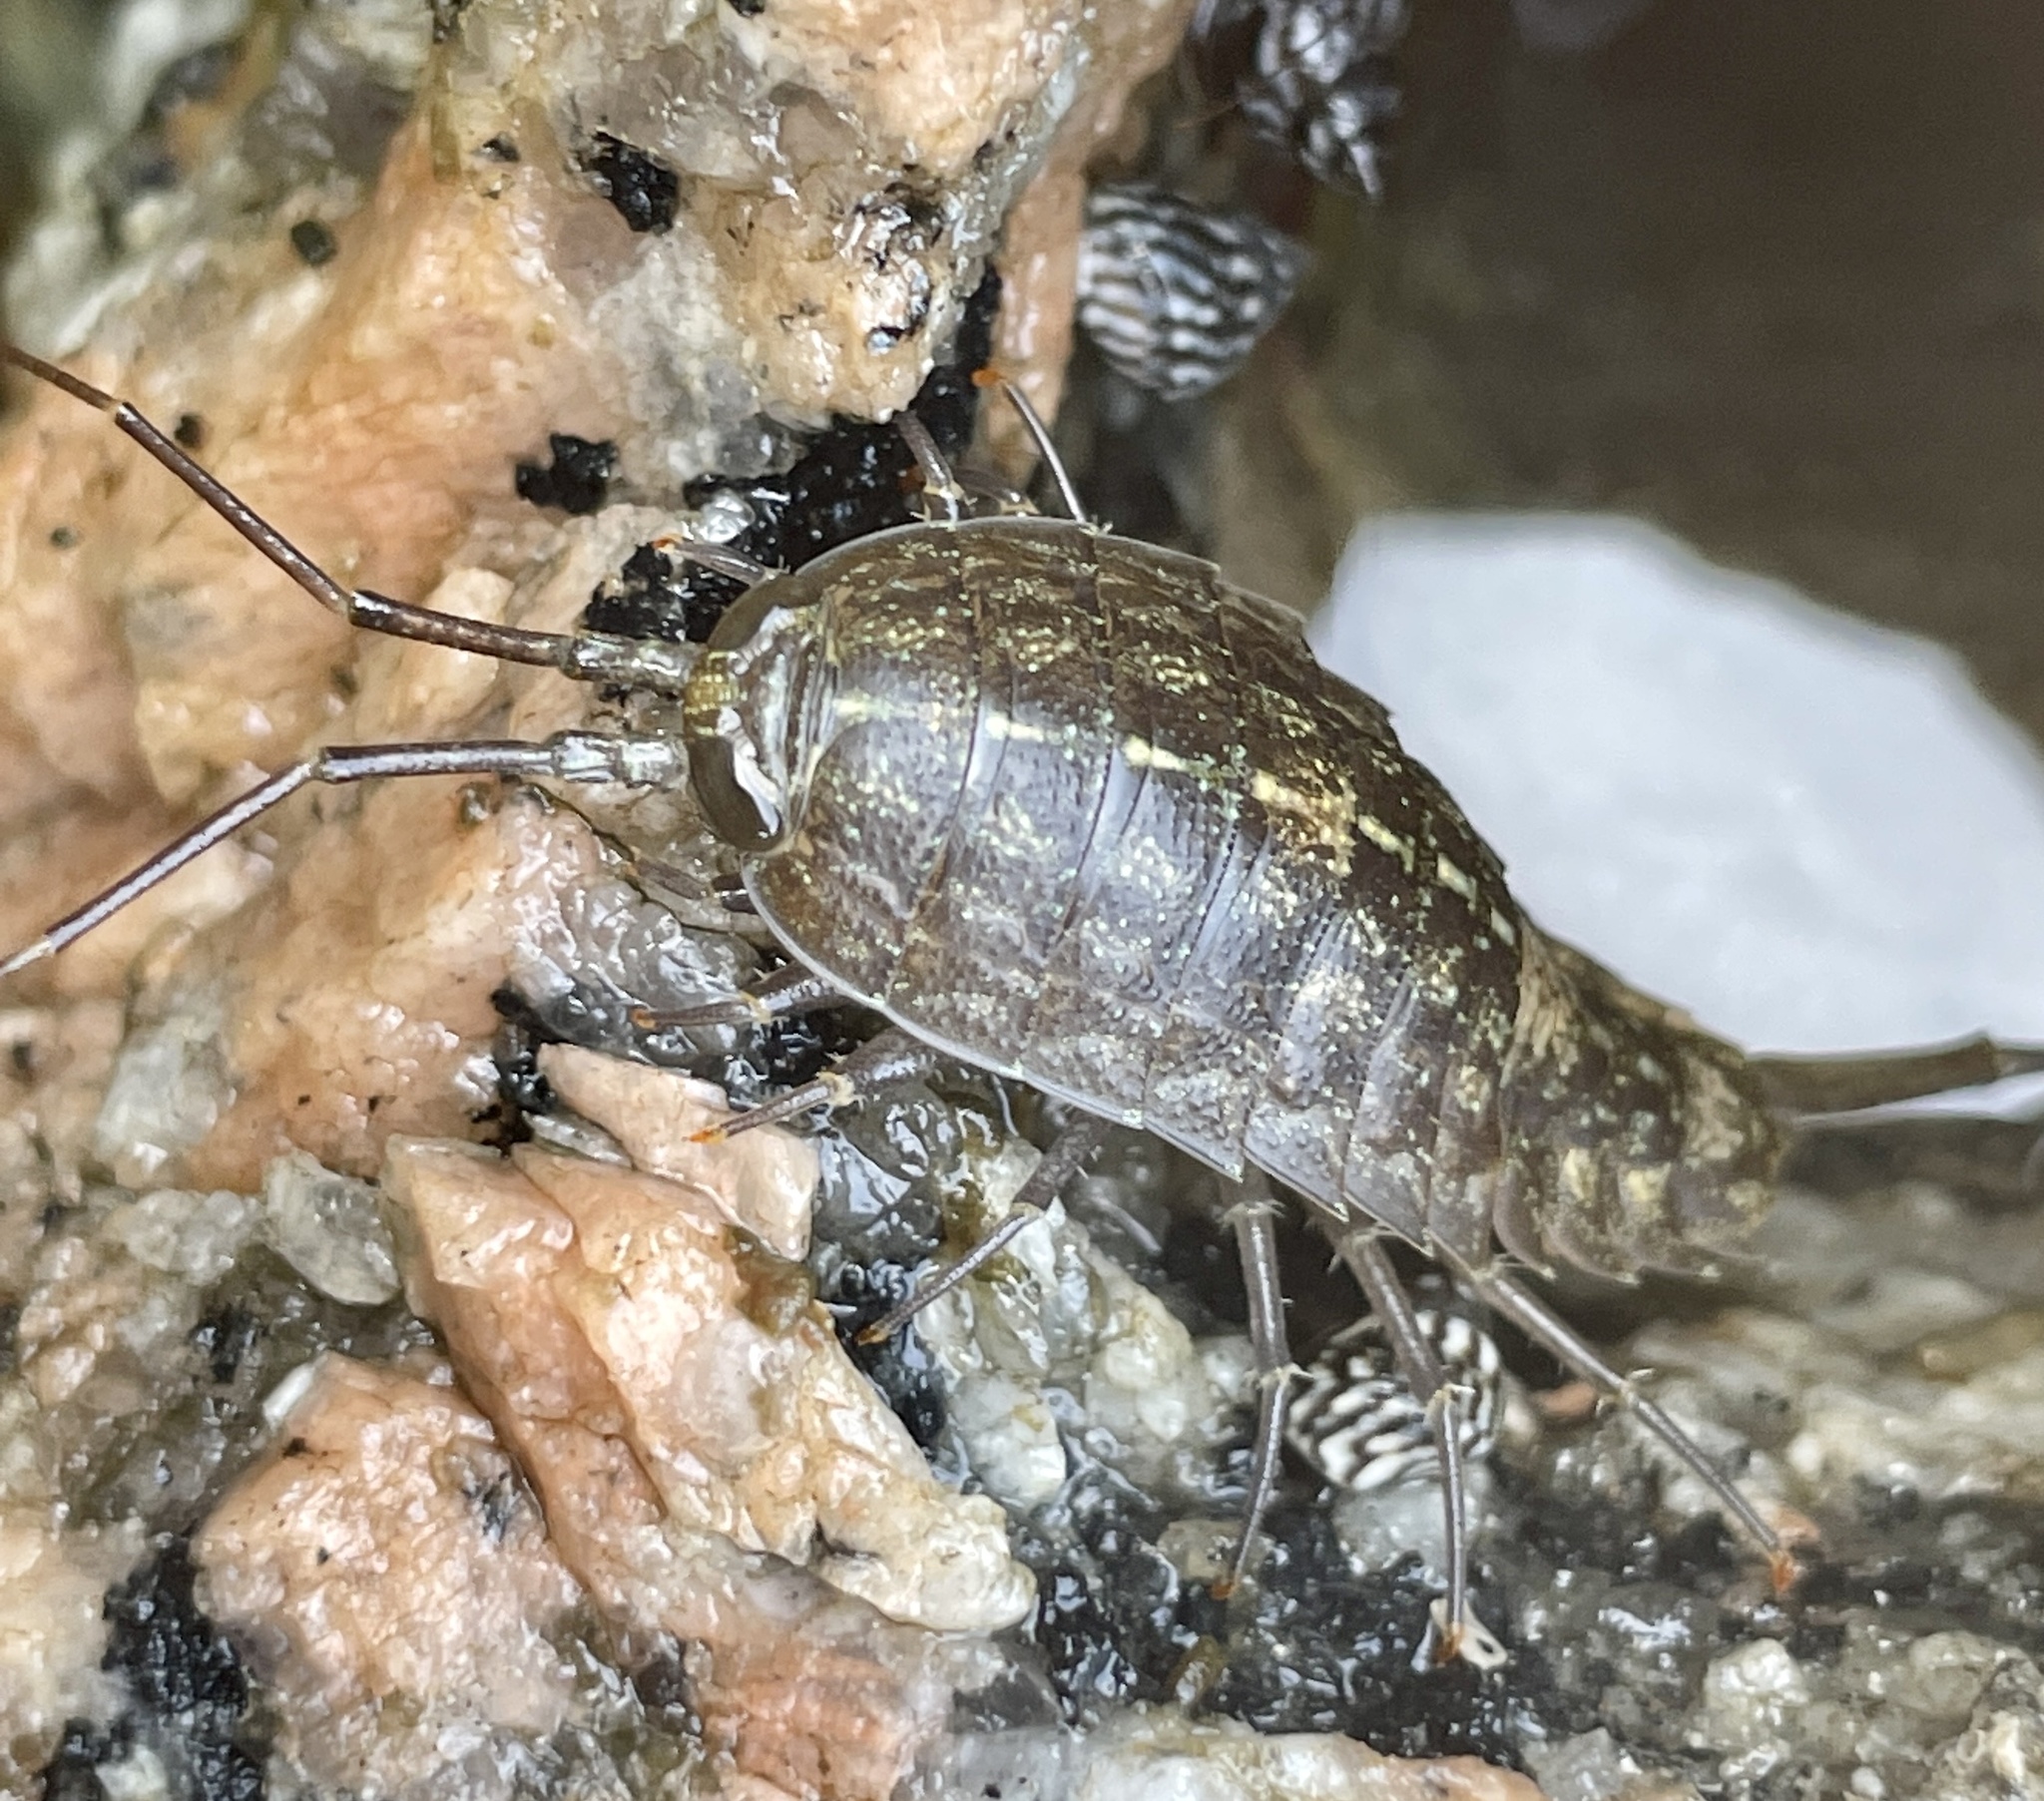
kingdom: Animalia
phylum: Arthropoda
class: Malacostraca
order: Isopoda
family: Ligiidae
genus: Ligia
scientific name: Ligia exotica
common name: Wharf roach
